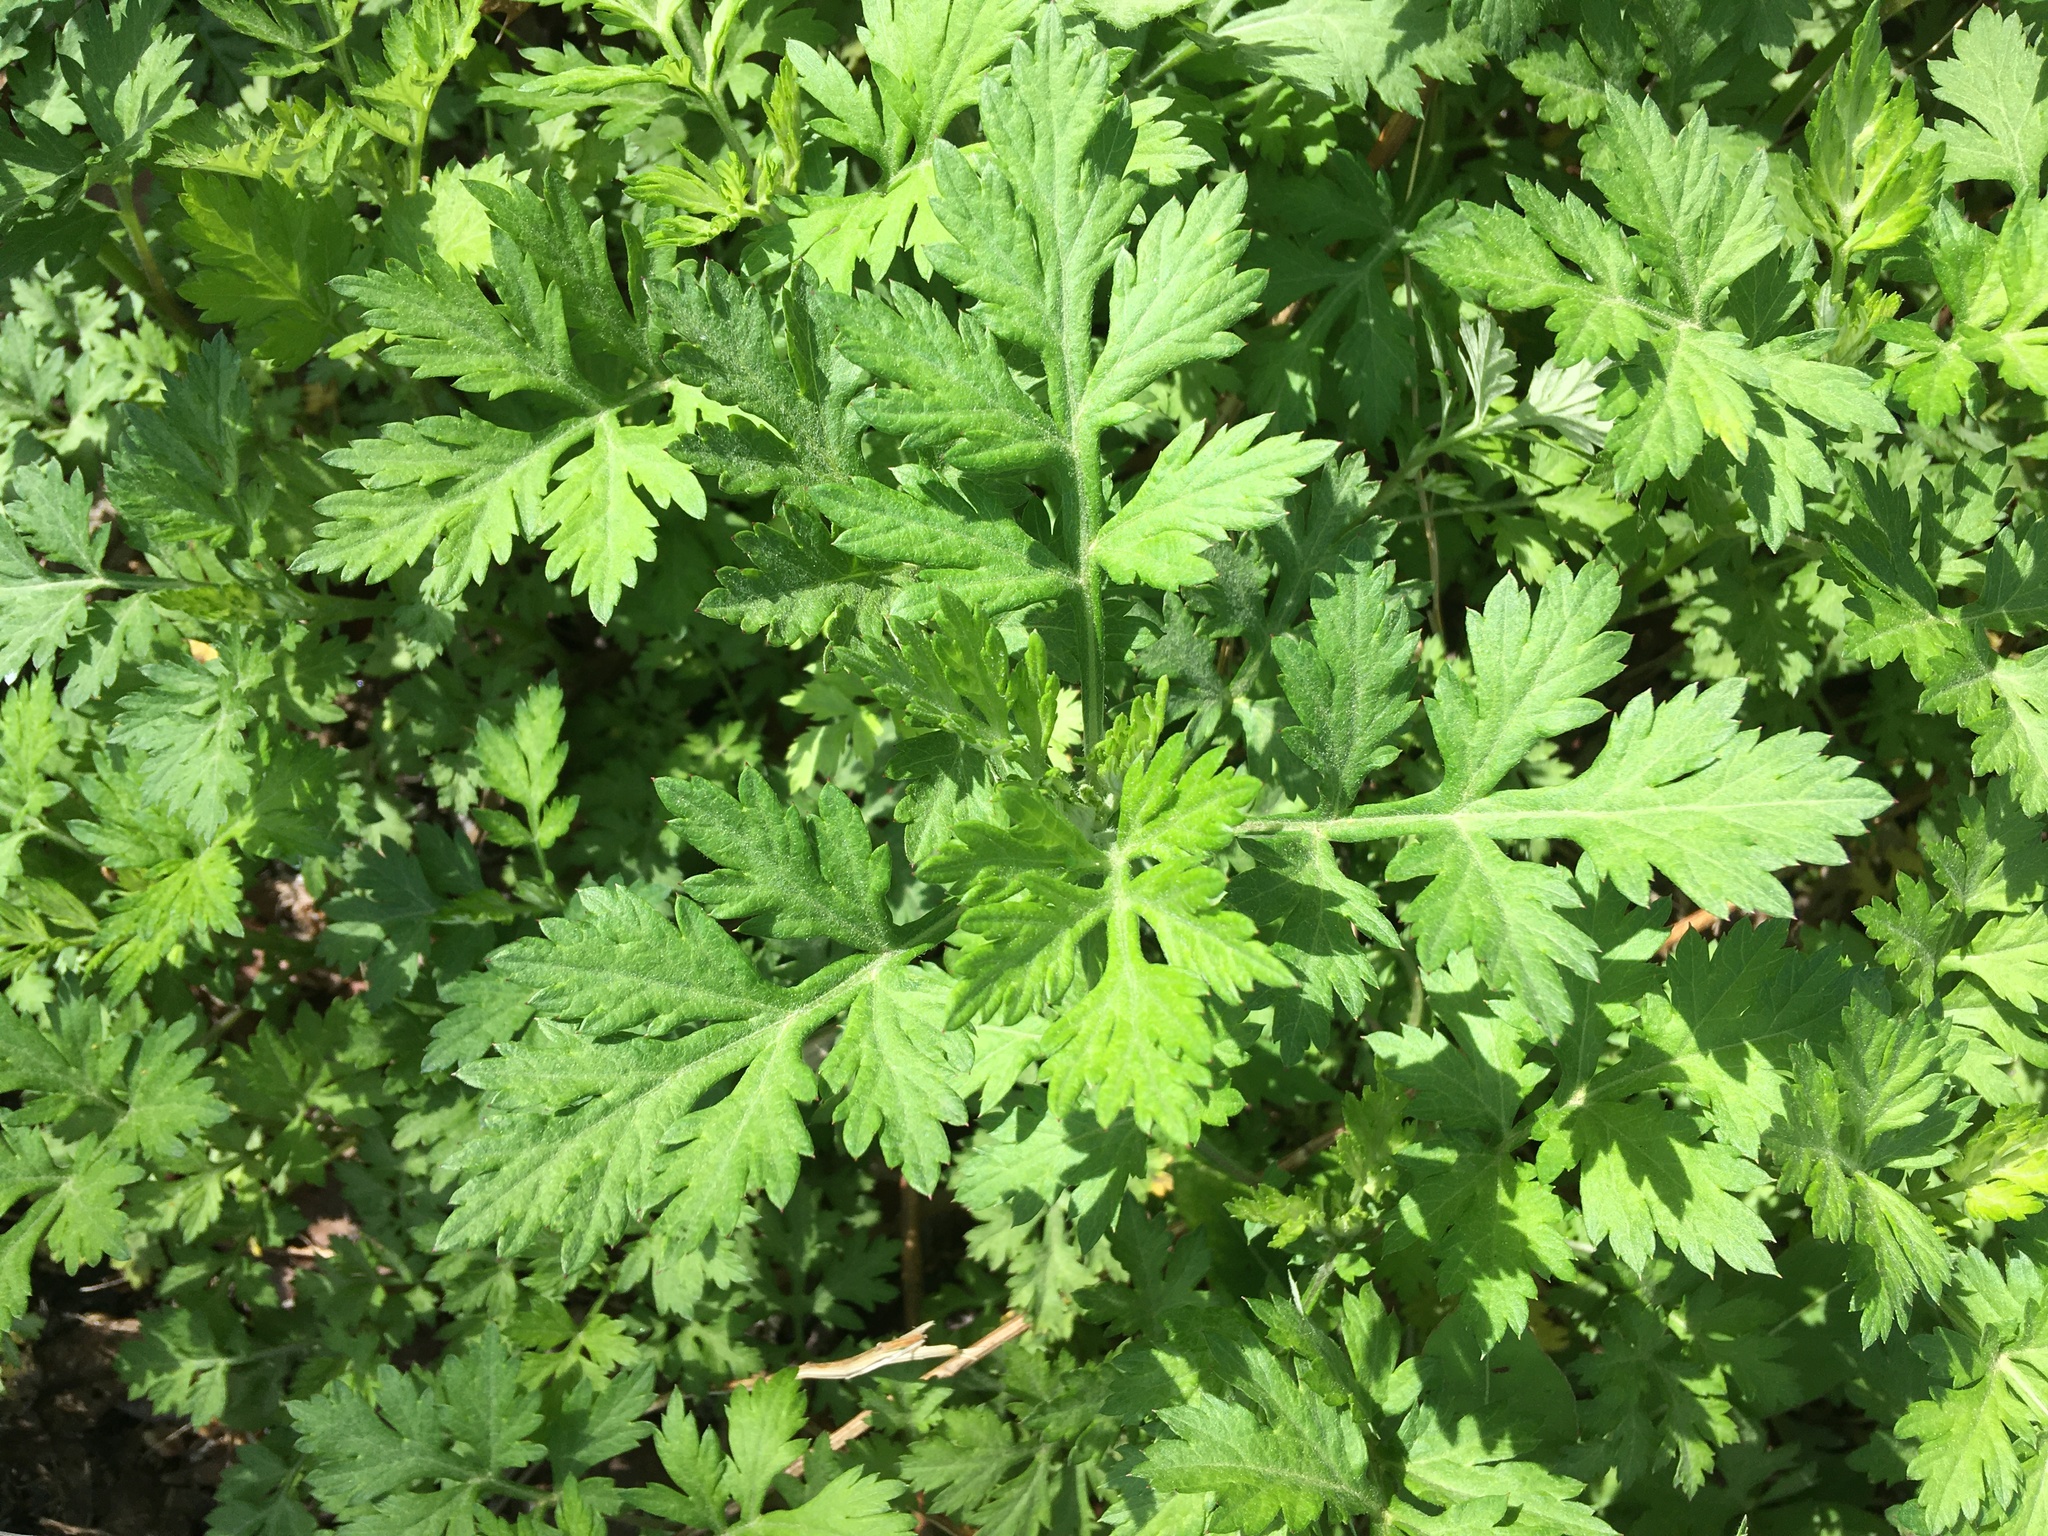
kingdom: Plantae
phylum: Tracheophyta
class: Magnoliopsida
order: Asterales
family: Asteraceae
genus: Artemisia
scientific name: Artemisia vulgaris
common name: Mugwort
